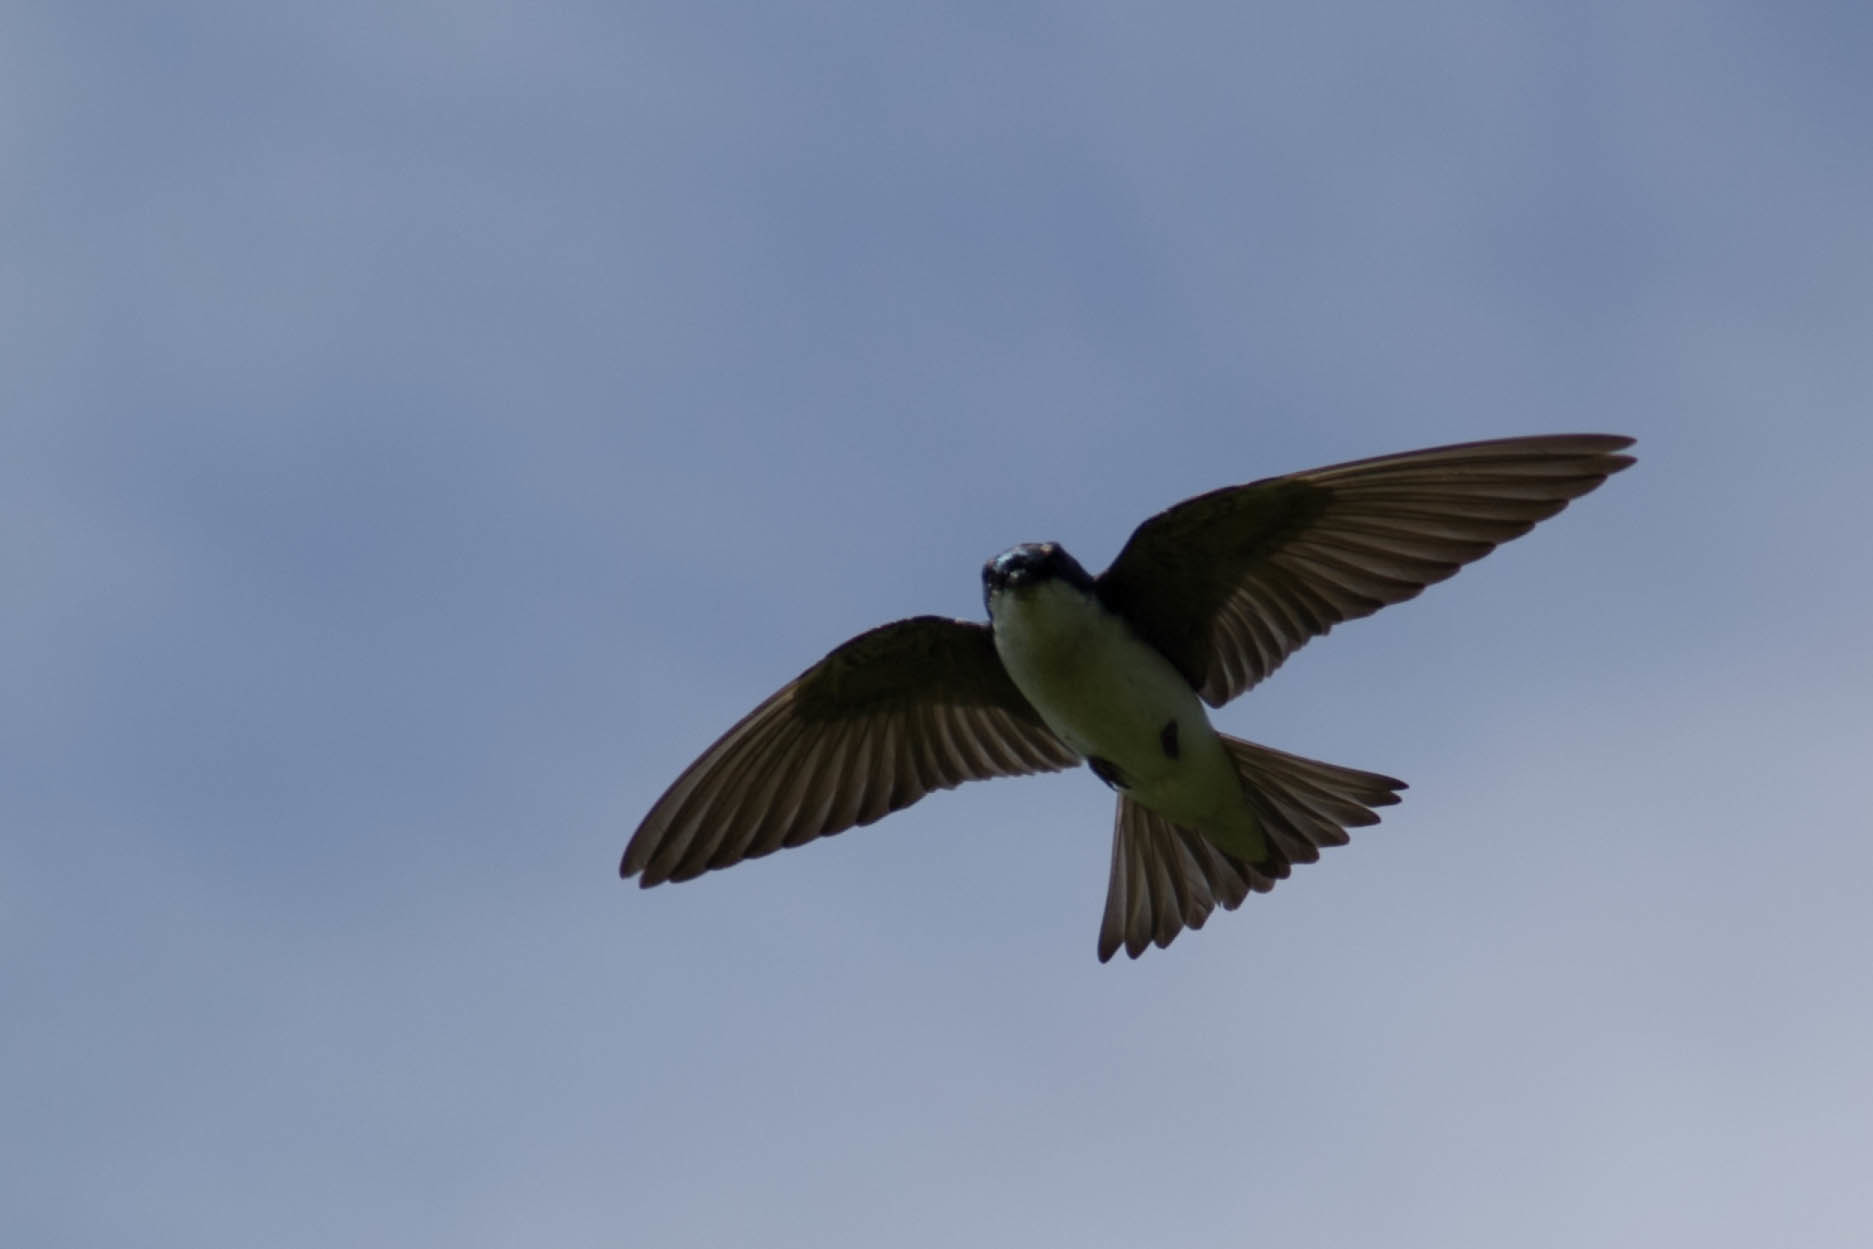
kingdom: Animalia
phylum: Chordata
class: Aves
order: Passeriformes
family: Hirundinidae
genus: Tachycineta
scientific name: Tachycineta bicolor
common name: Tree swallow
